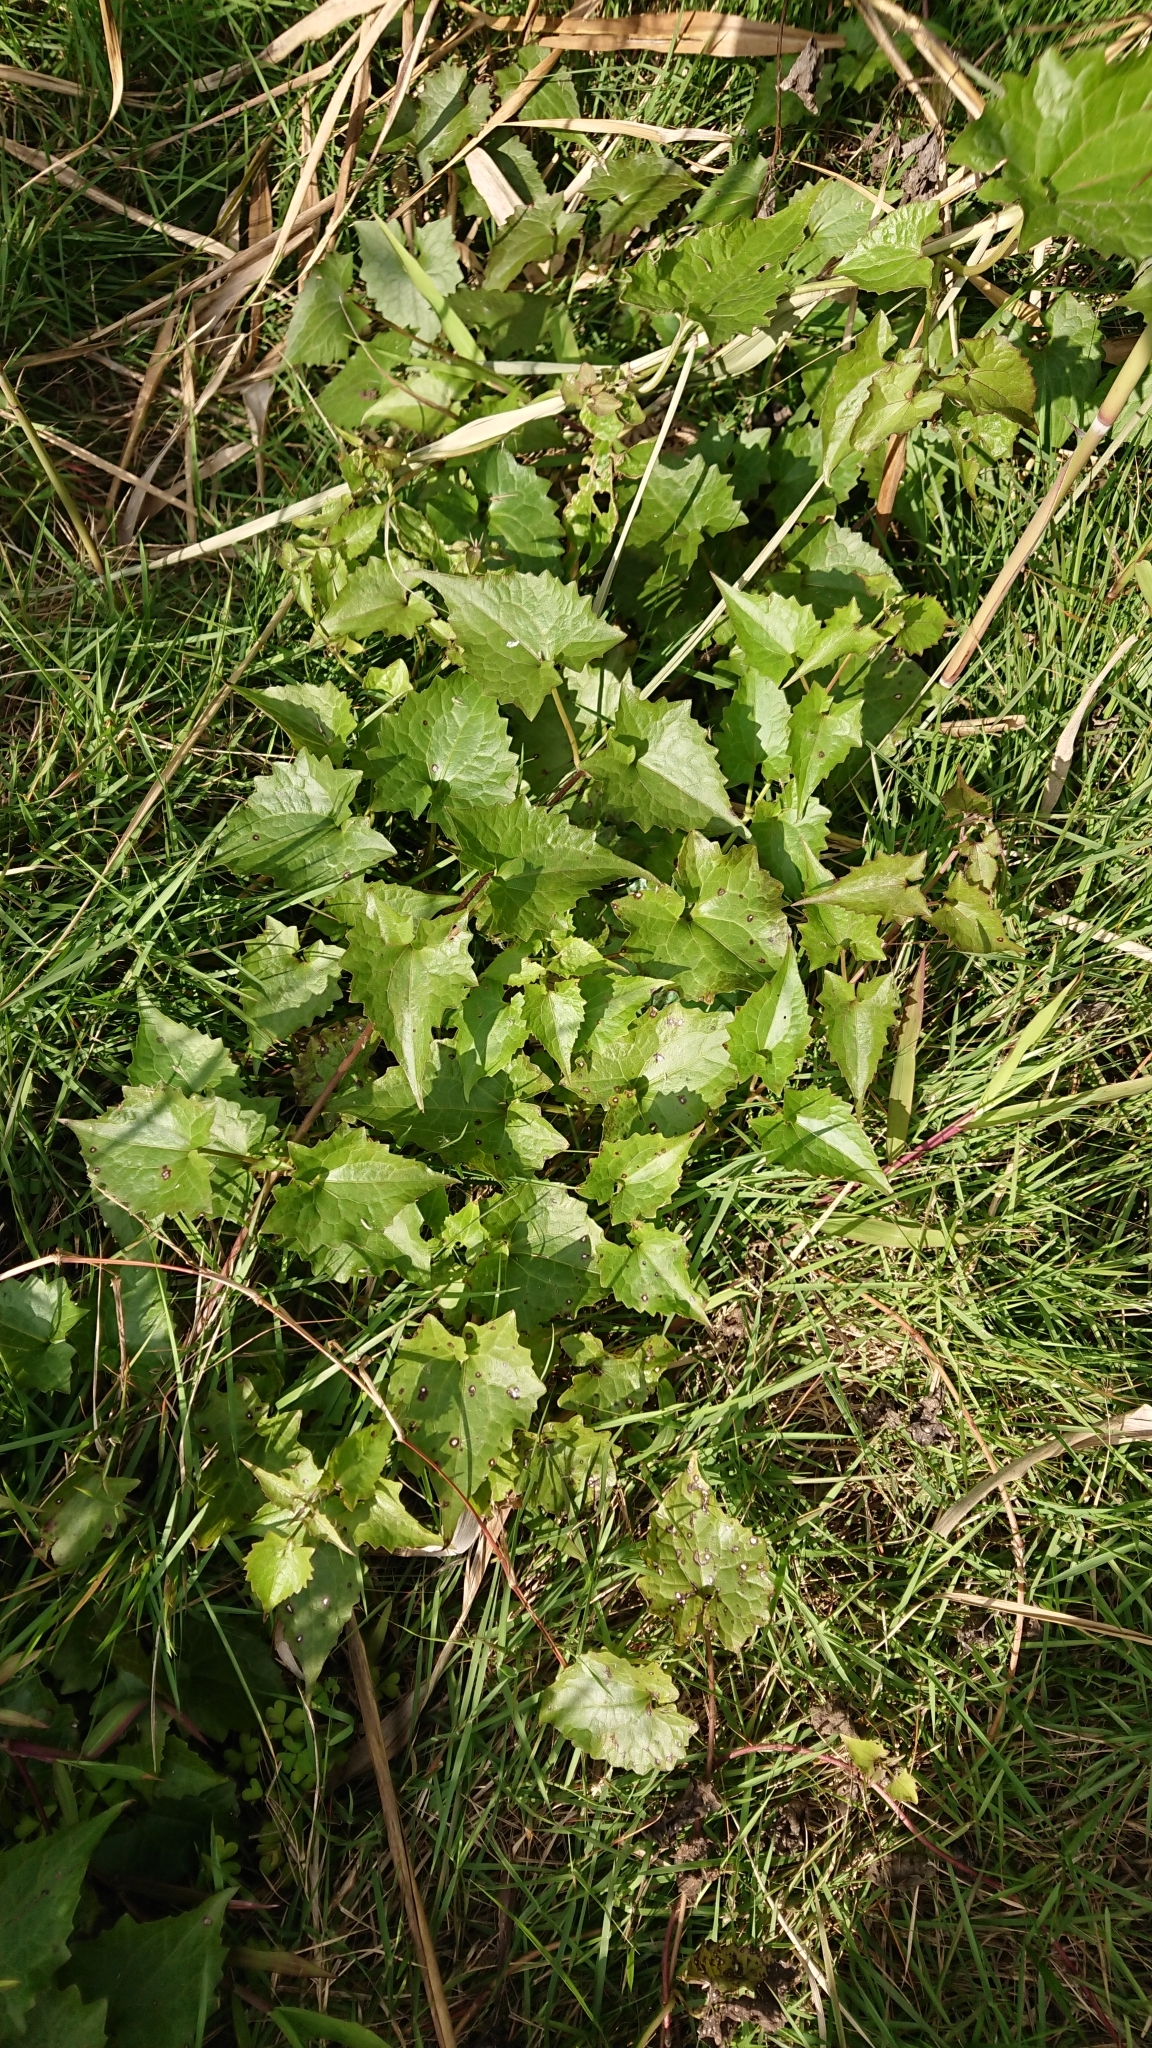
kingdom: Plantae
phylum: Tracheophyta
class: Magnoliopsida
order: Asterales
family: Asteraceae
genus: Mikania
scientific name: Mikania micrantha
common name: Mile-a-minute
